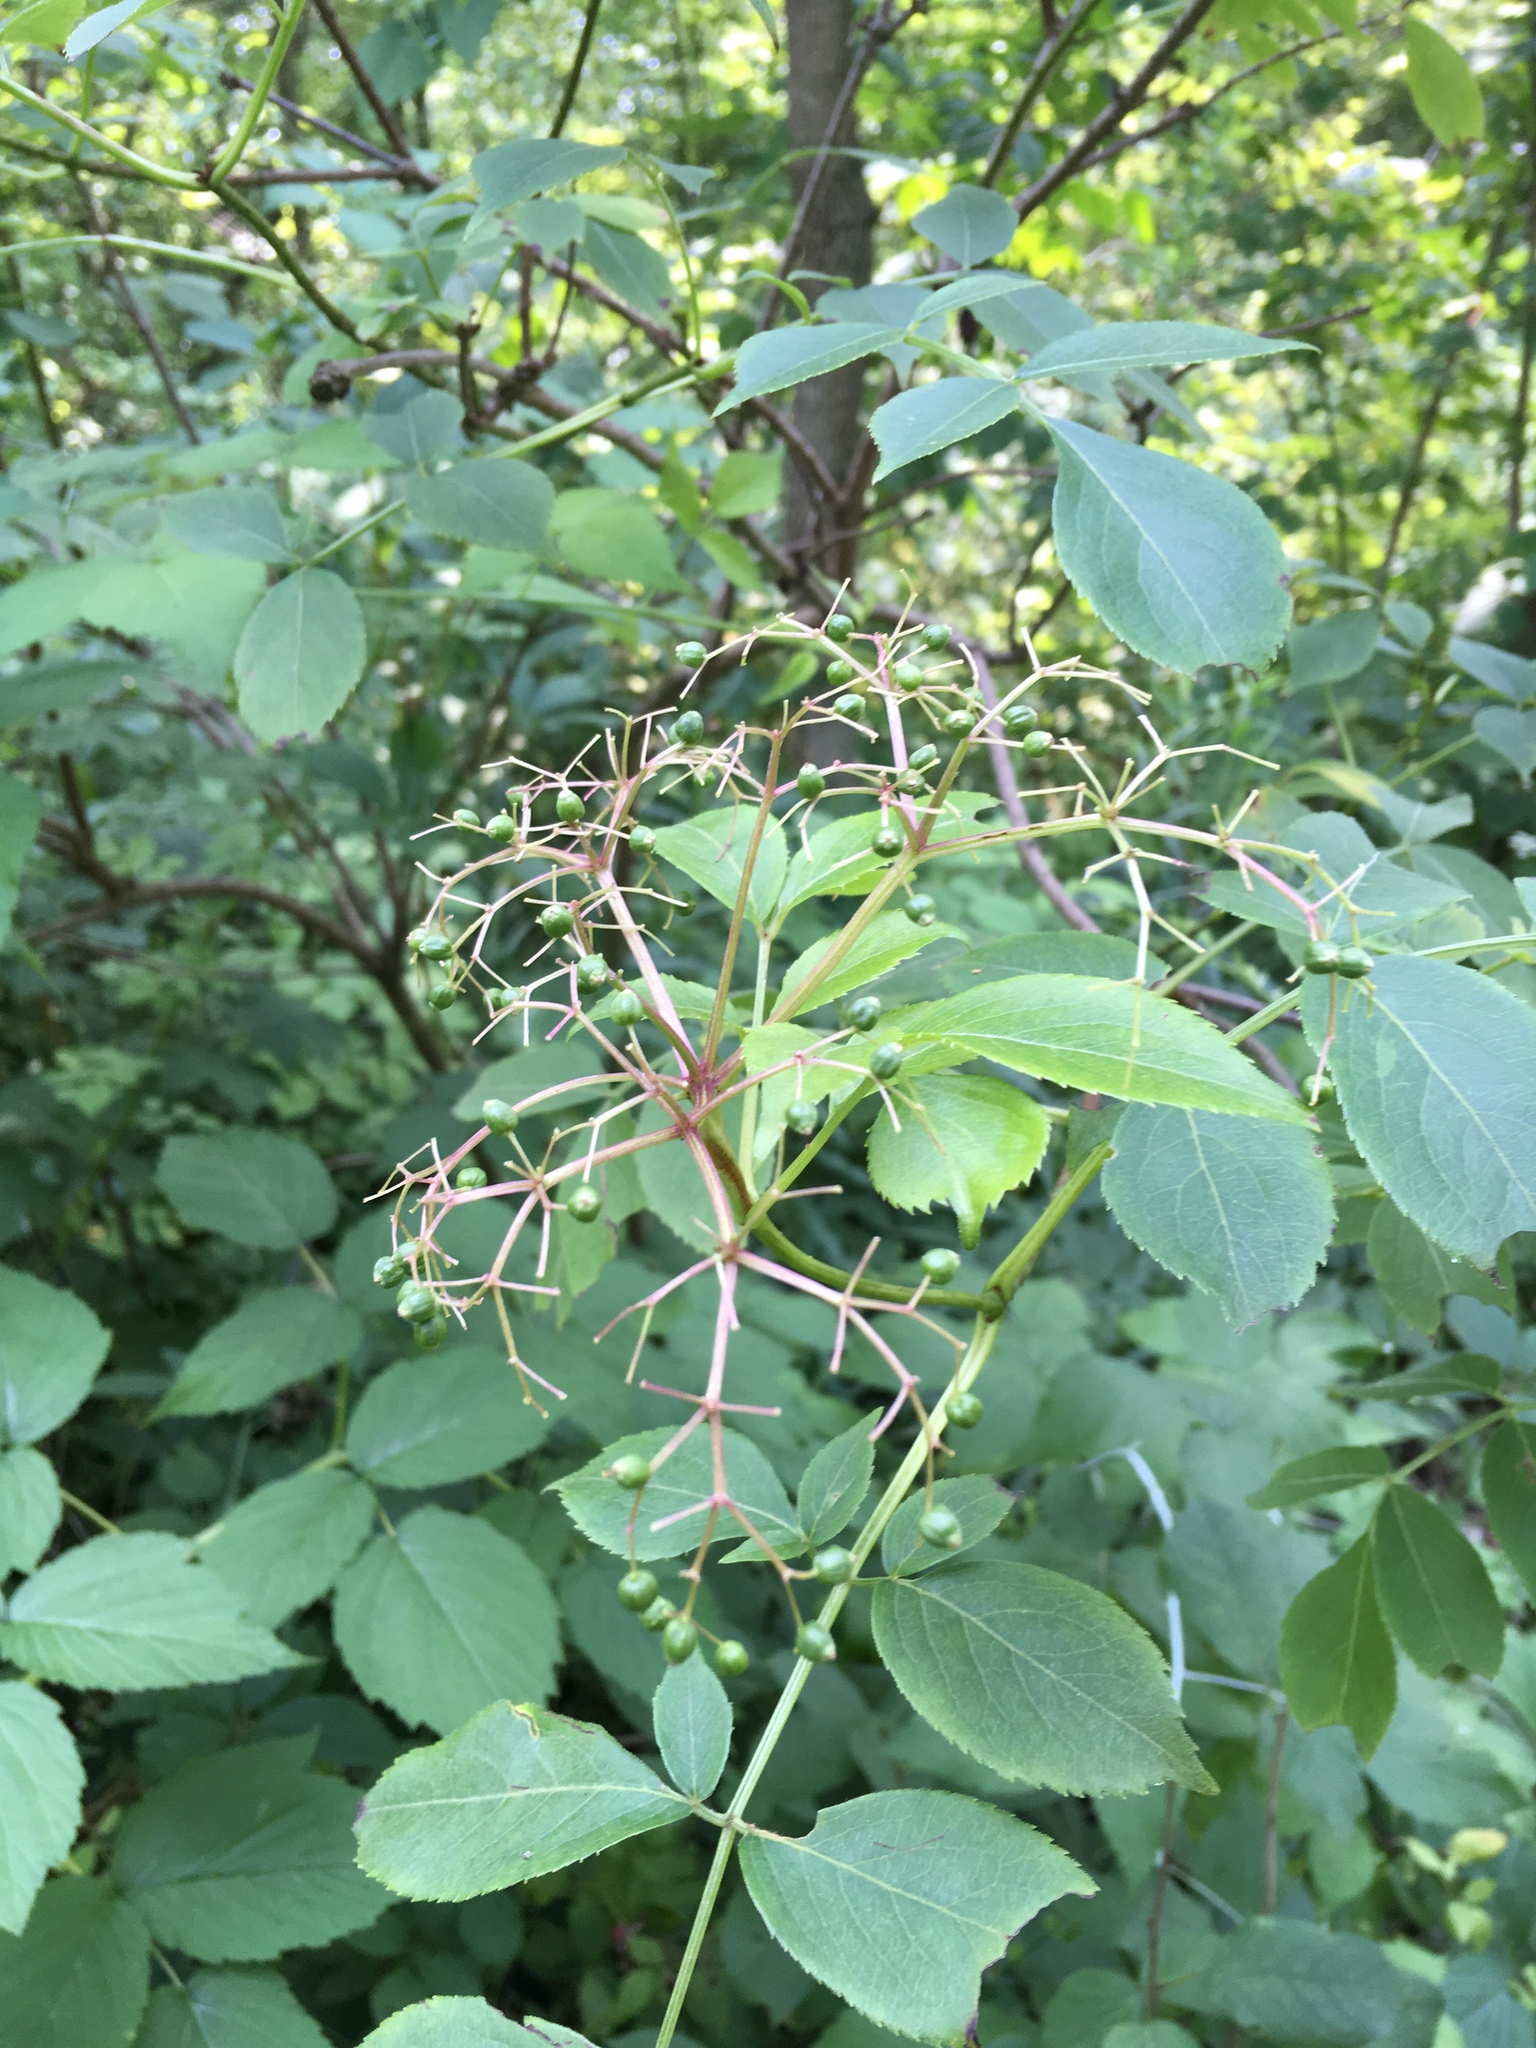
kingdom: Plantae
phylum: Tracheophyta
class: Magnoliopsida
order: Dipsacales
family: Viburnaceae
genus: Sambucus
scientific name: Sambucus canadensis
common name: American elder
